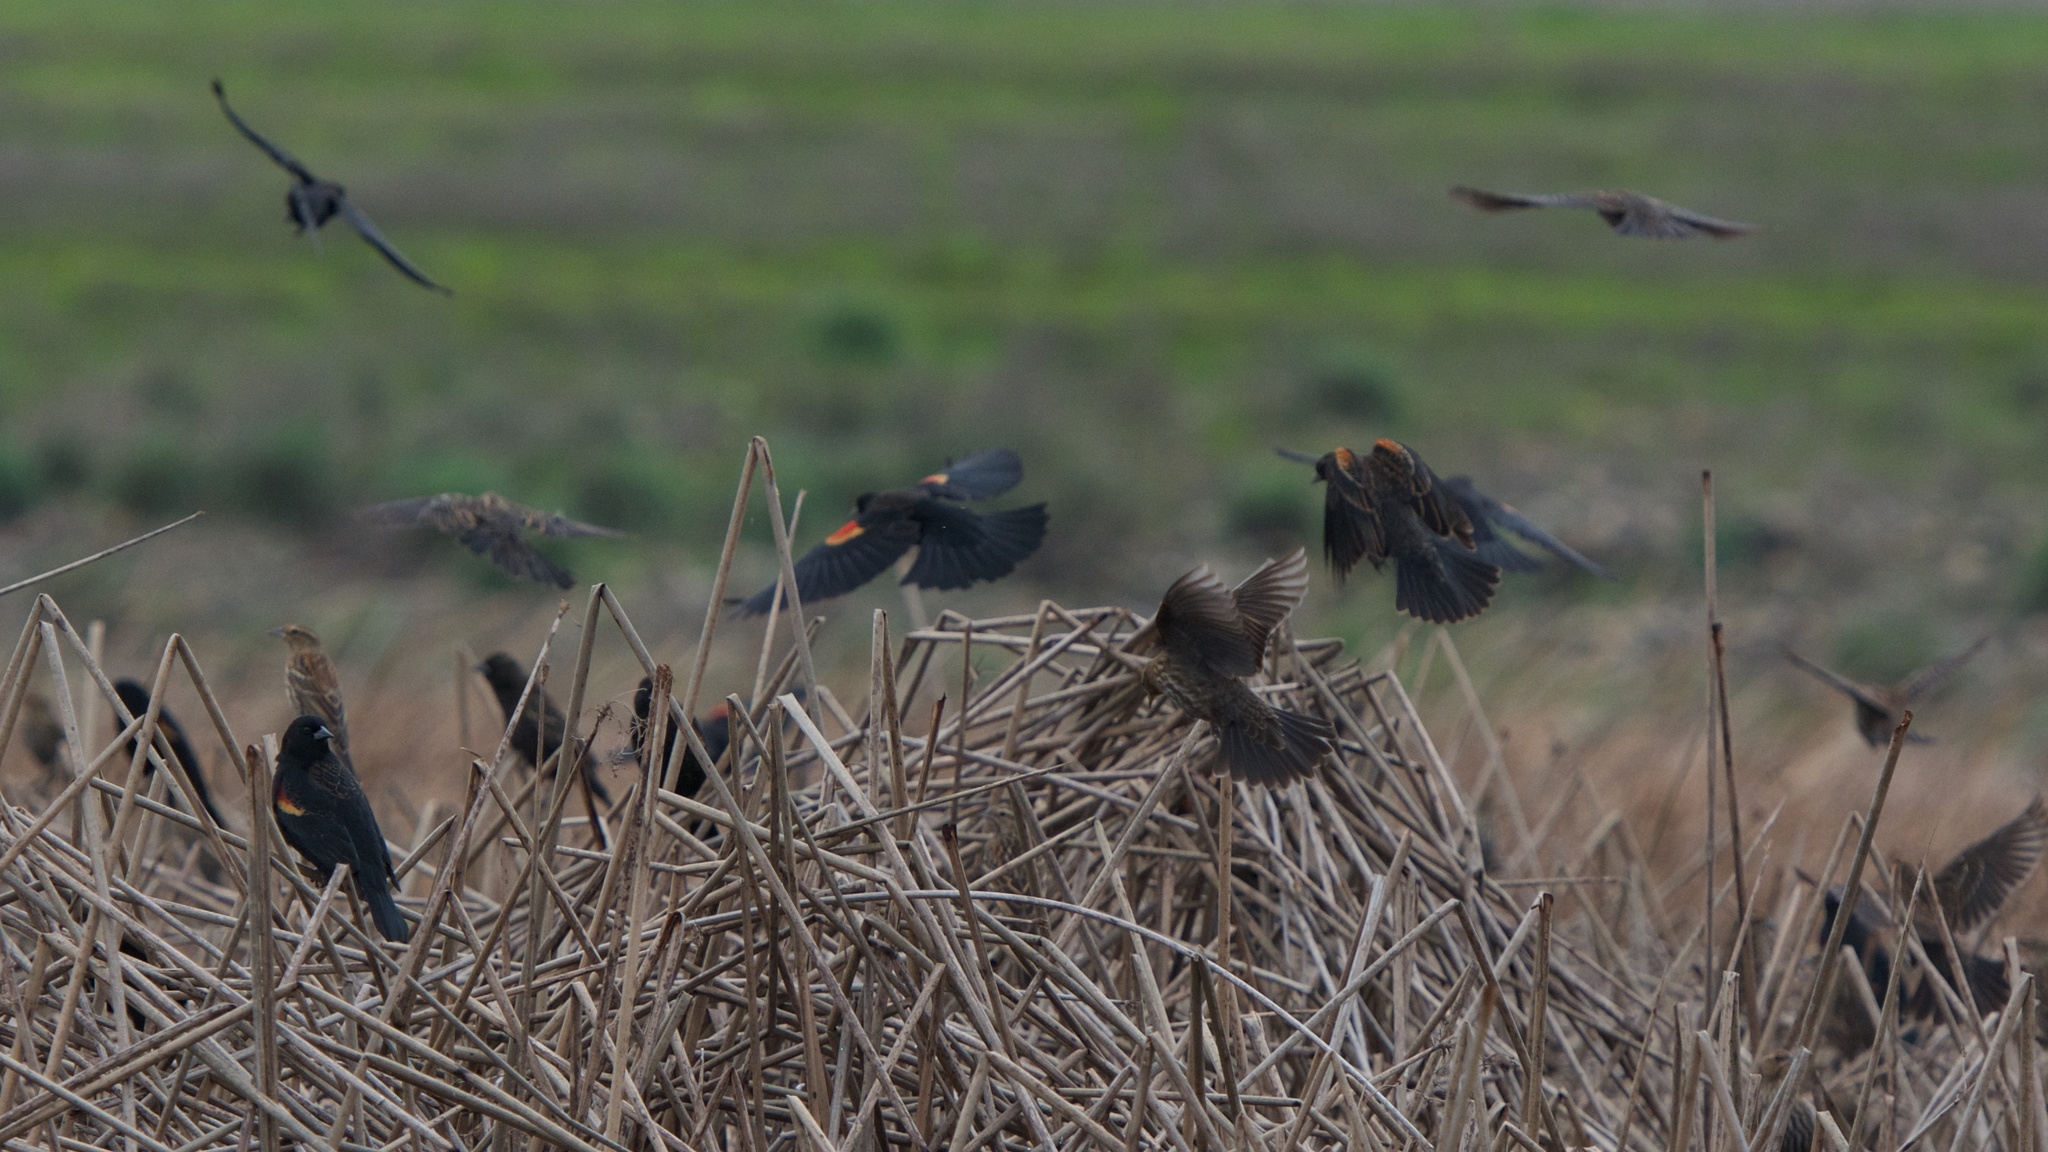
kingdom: Animalia
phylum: Chordata
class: Aves
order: Passeriformes
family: Icteridae
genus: Agelaius
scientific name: Agelaius phoeniceus
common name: Red-winged blackbird
